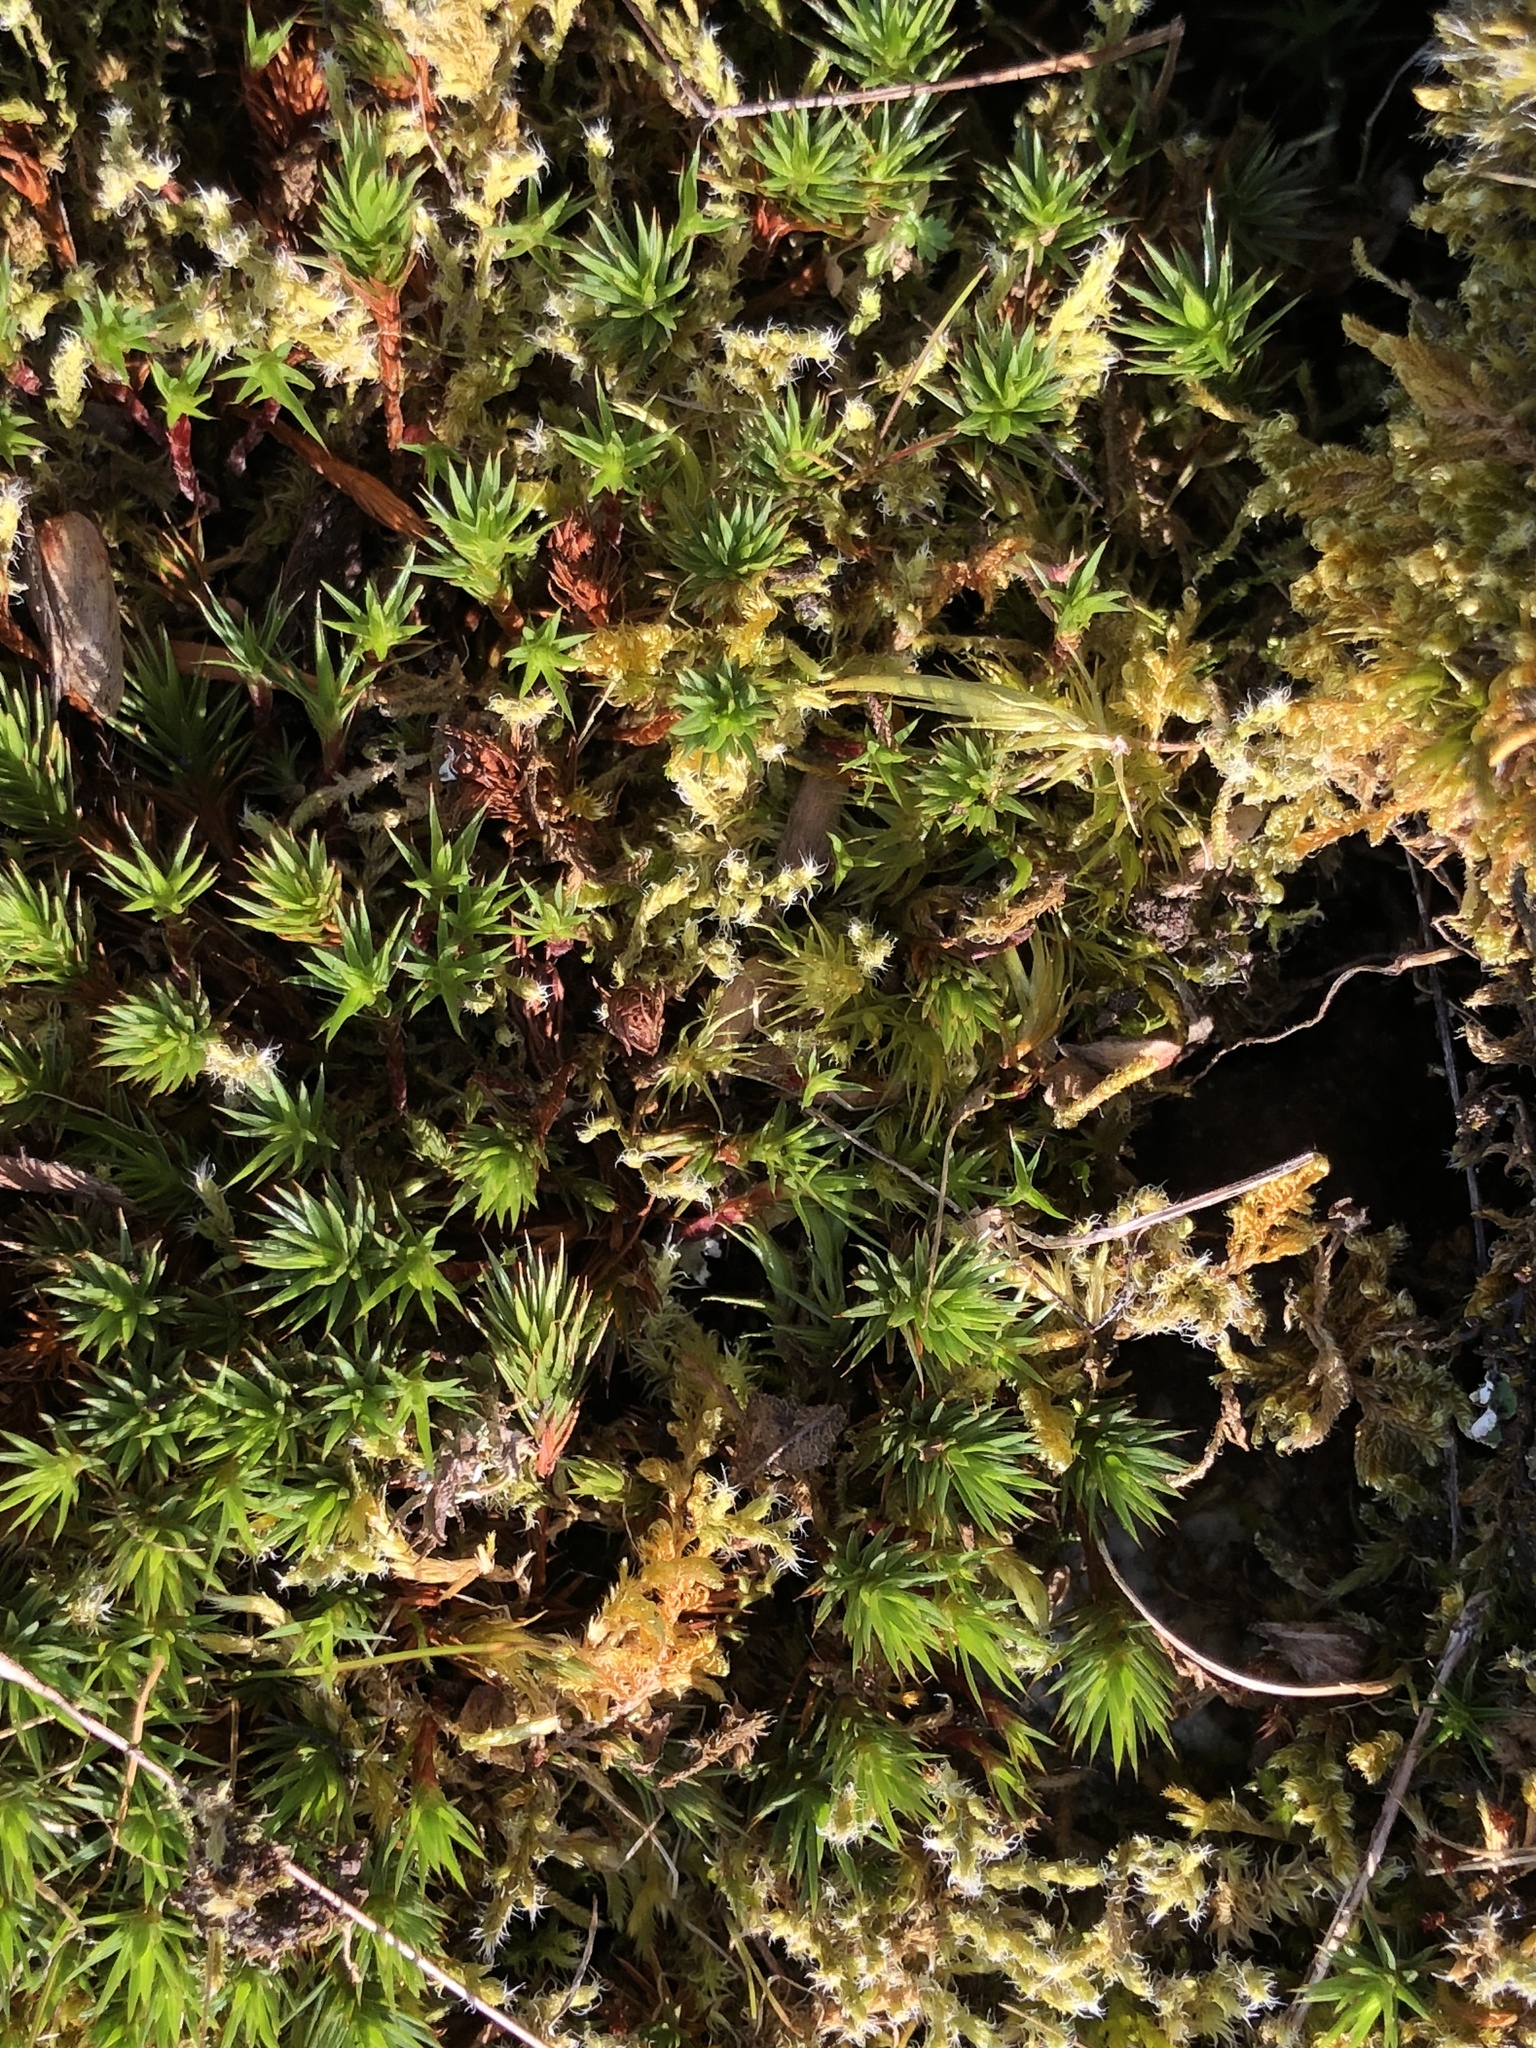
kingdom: Plantae
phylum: Bryophyta
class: Polytrichopsida
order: Polytrichales
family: Polytrichaceae
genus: Polytrichum
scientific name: Polytrichum juniperinum
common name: Juniper haircap moss
